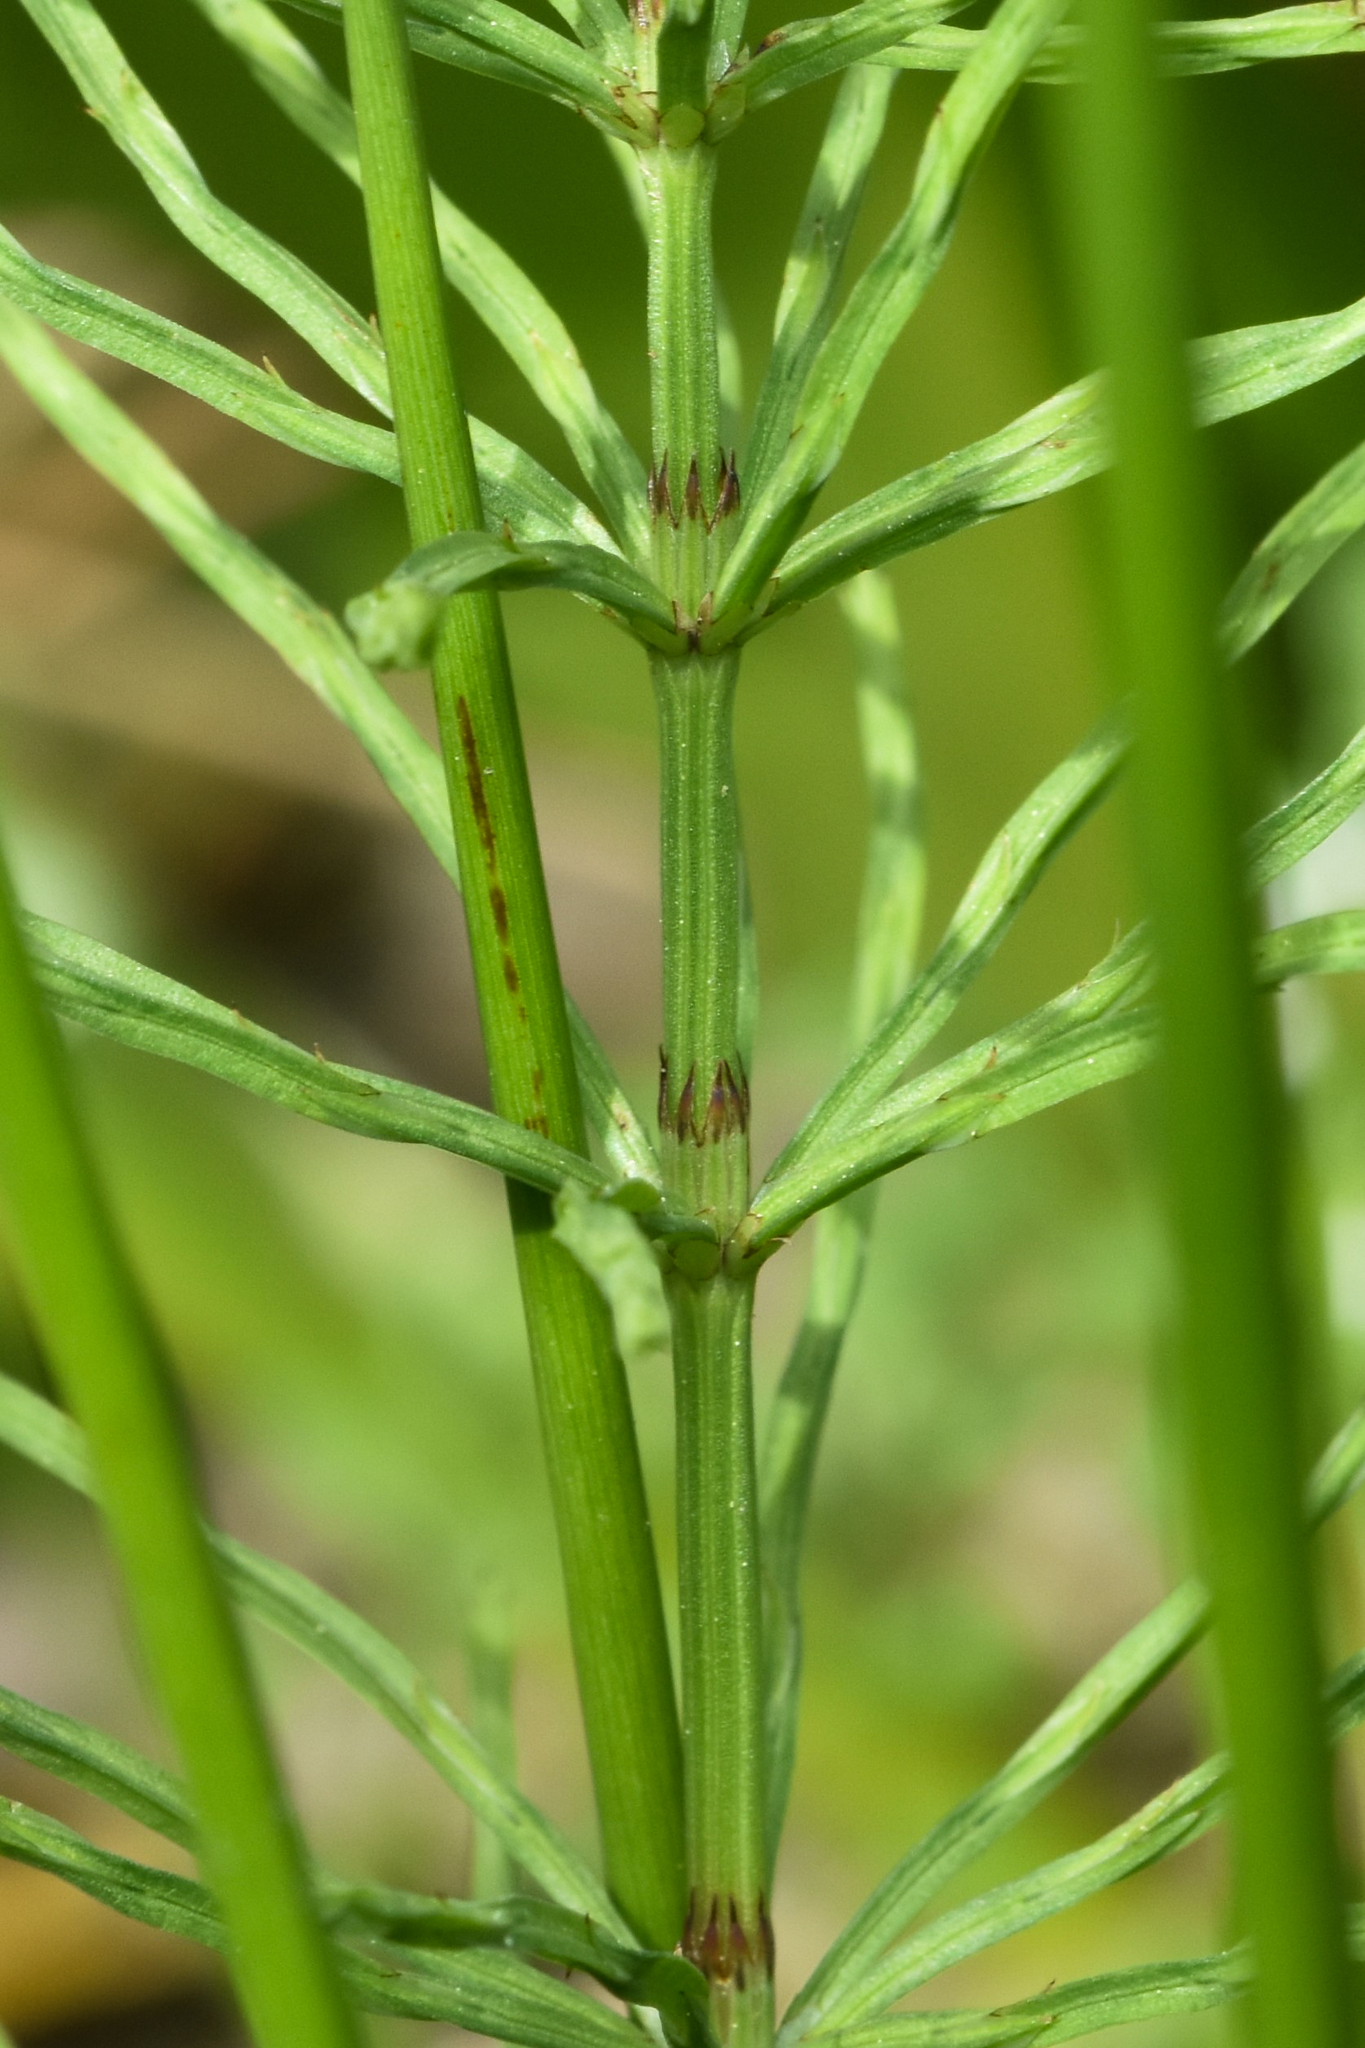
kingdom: Plantae
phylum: Tracheophyta
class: Polypodiopsida
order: Equisetales
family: Equisetaceae
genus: Equisetum
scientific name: Equisetum arvense
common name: Field horsetail
